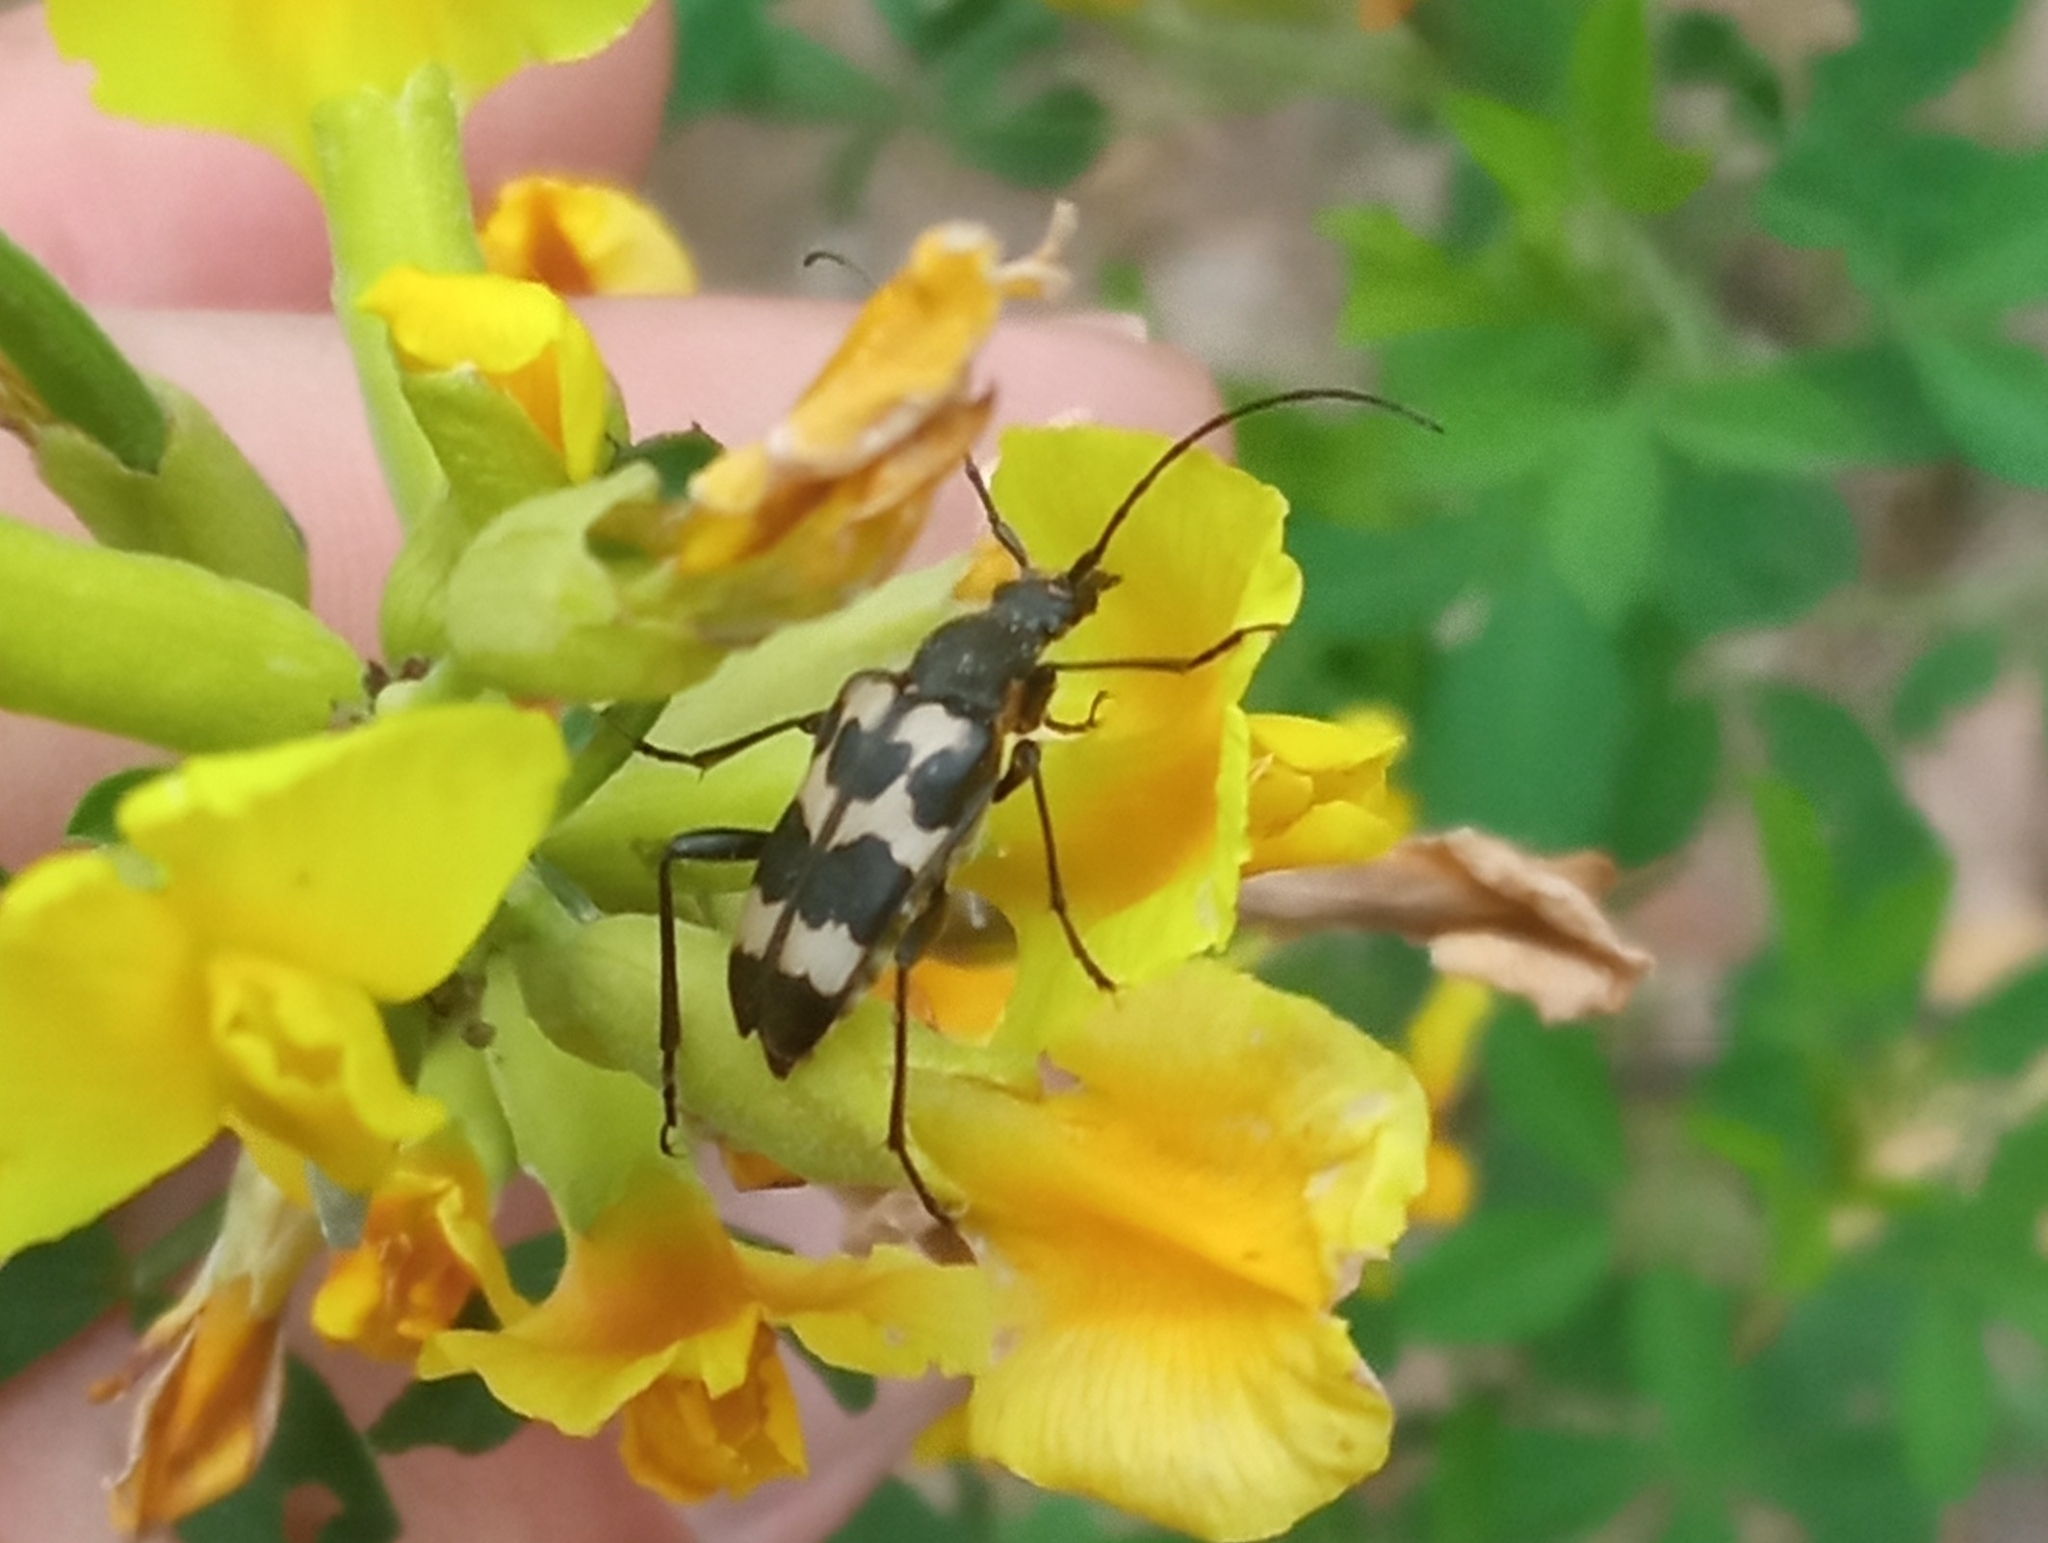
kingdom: Animalia
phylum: Arthropoda
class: Insecta
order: Coleoptera
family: Cerambycidae
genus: Judolia
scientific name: Judolia sexmaculata
